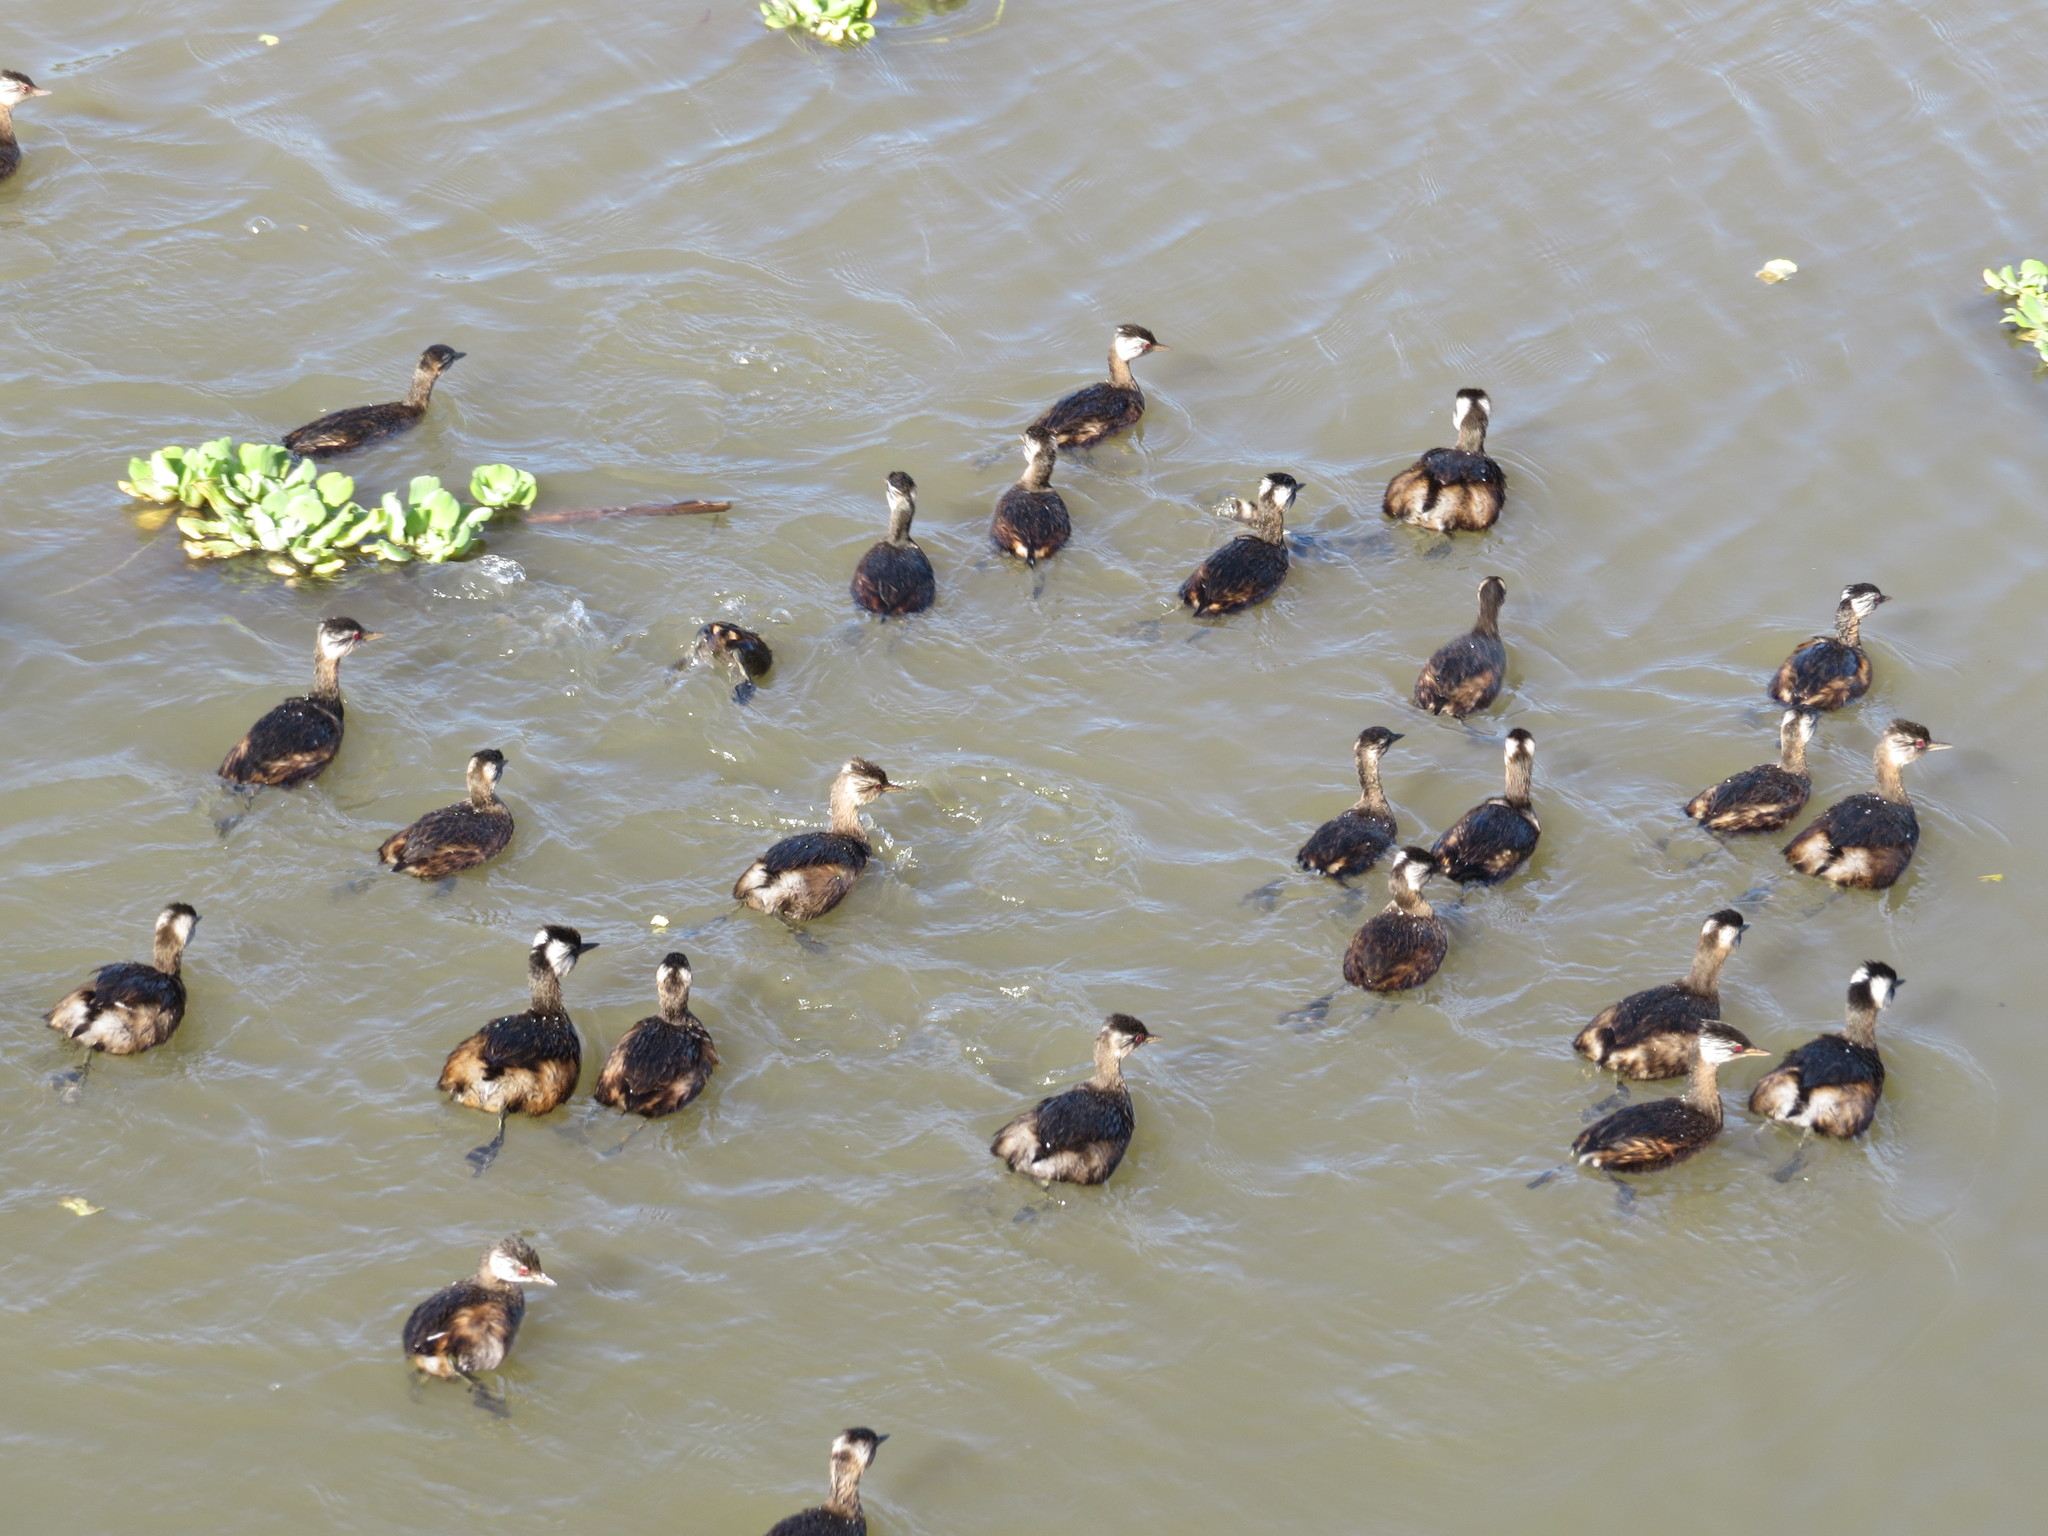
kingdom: Animalia
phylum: Chordata
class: Aves
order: Podicipediformes
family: Podicipedidae
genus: Rollandia
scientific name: Rollandia rolland
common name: White-tufted grebe
